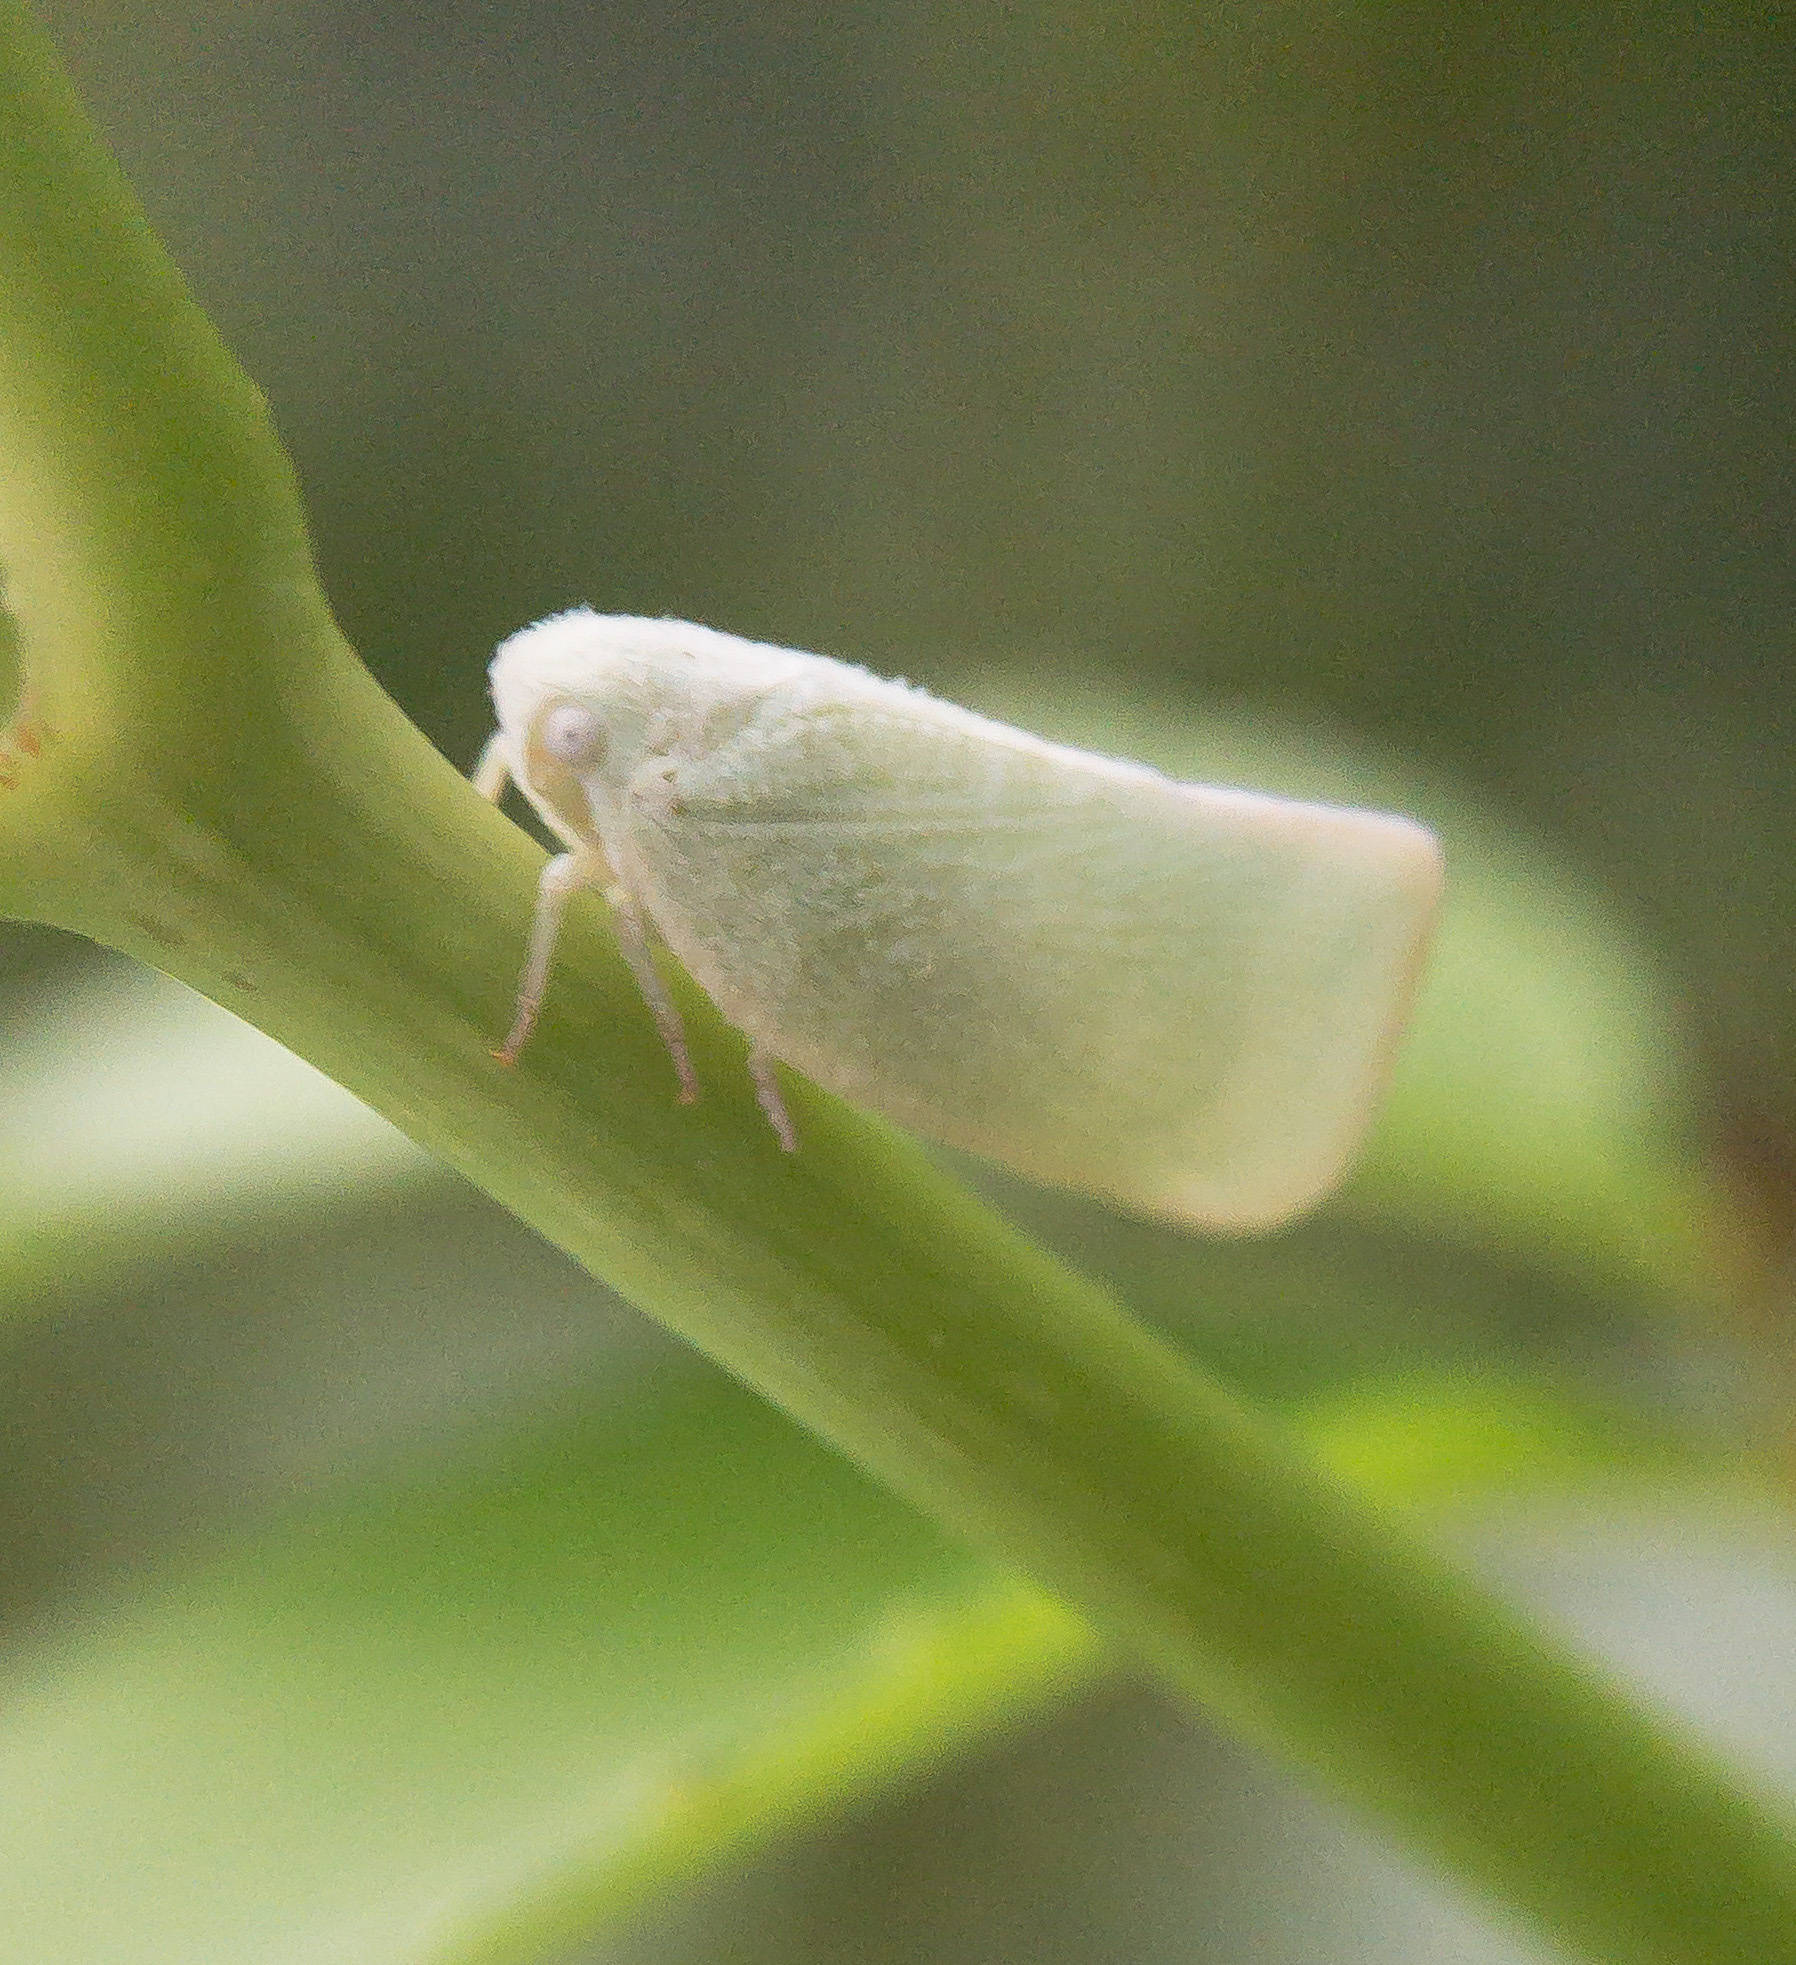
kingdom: Animalia
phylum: Arthropoda
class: Insecta
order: Hemiptera
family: Flatidae
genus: Flatormenis
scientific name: Flatormenis proxima
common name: Northern flatid planthopper
